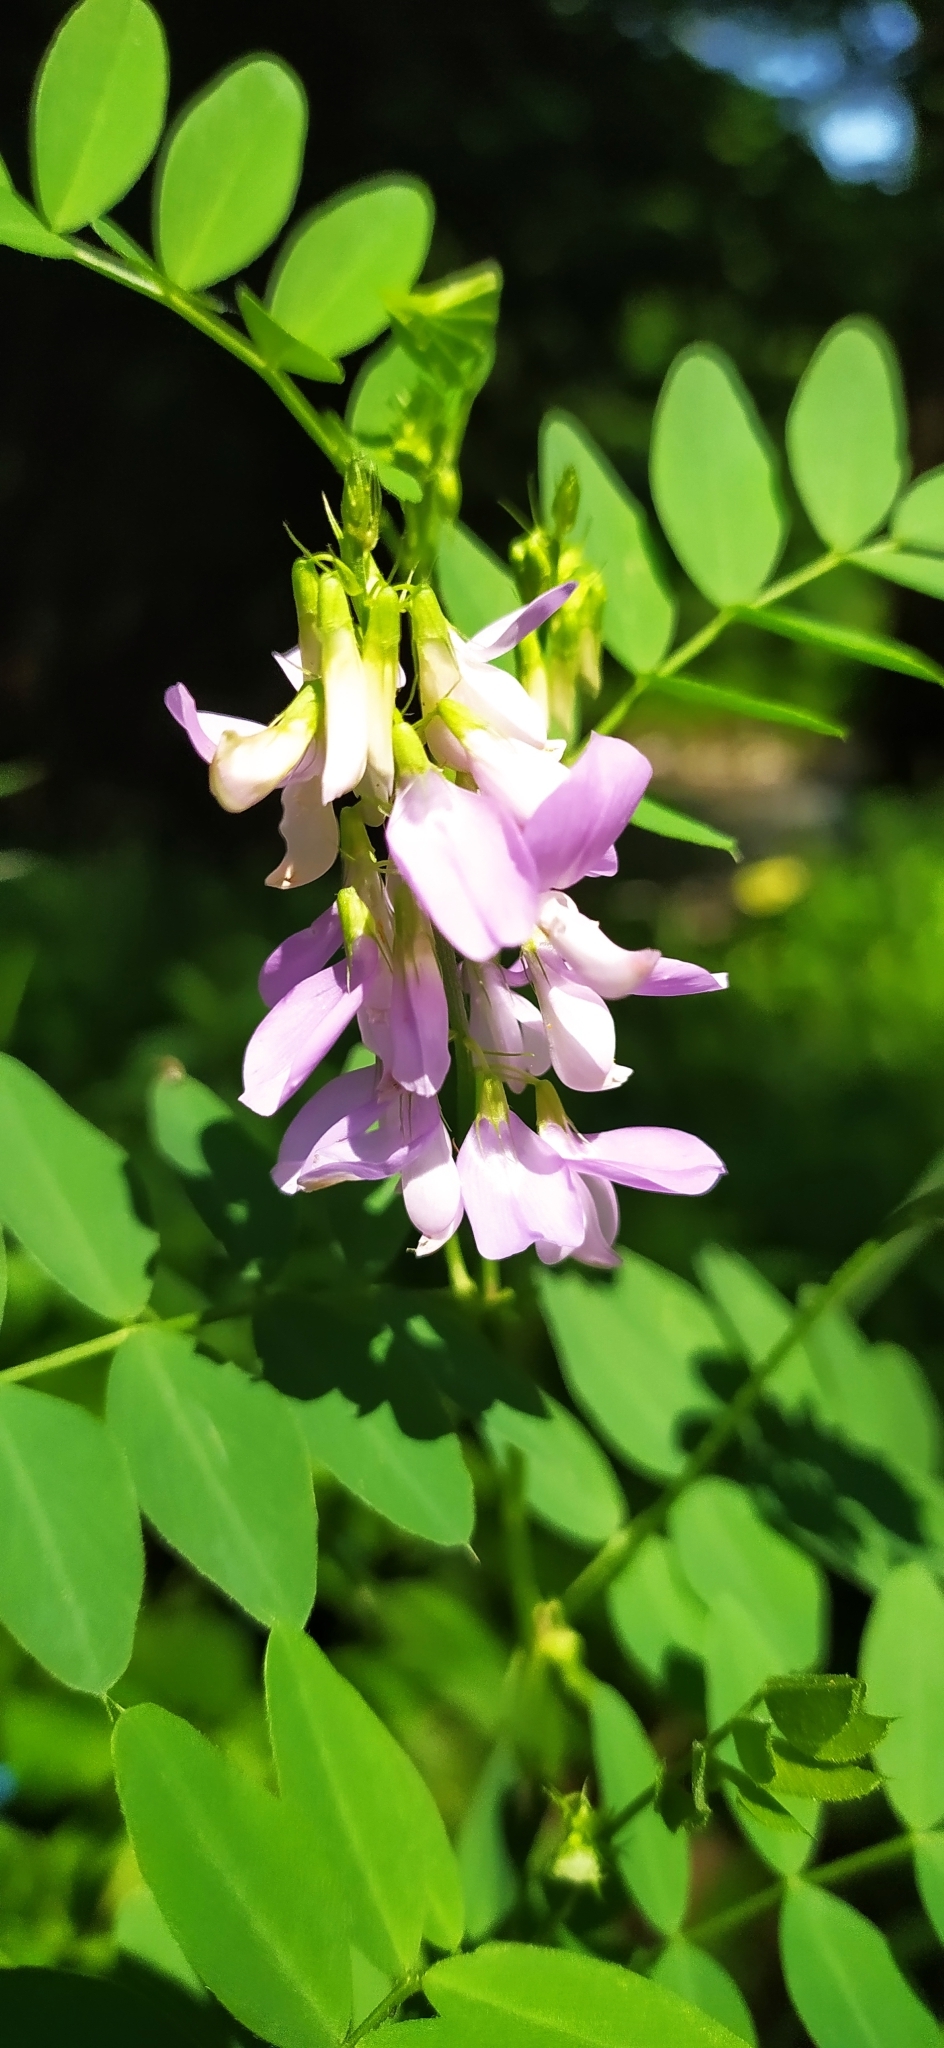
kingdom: Plantae
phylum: Tracheophyta
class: Magnoliopsida
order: Fabales
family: Fabaceae
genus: Galega
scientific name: Galega officinalis
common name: Goat's-rue
